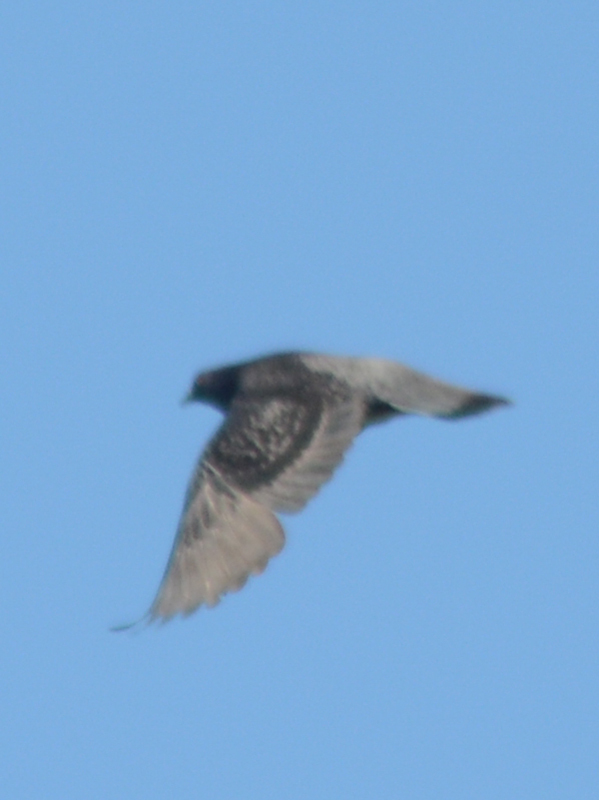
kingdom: Animalia
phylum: Chordata
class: Aves
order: Columbiformes
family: Columbidae
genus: Columba
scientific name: Columba livia
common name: Rock pigeon
